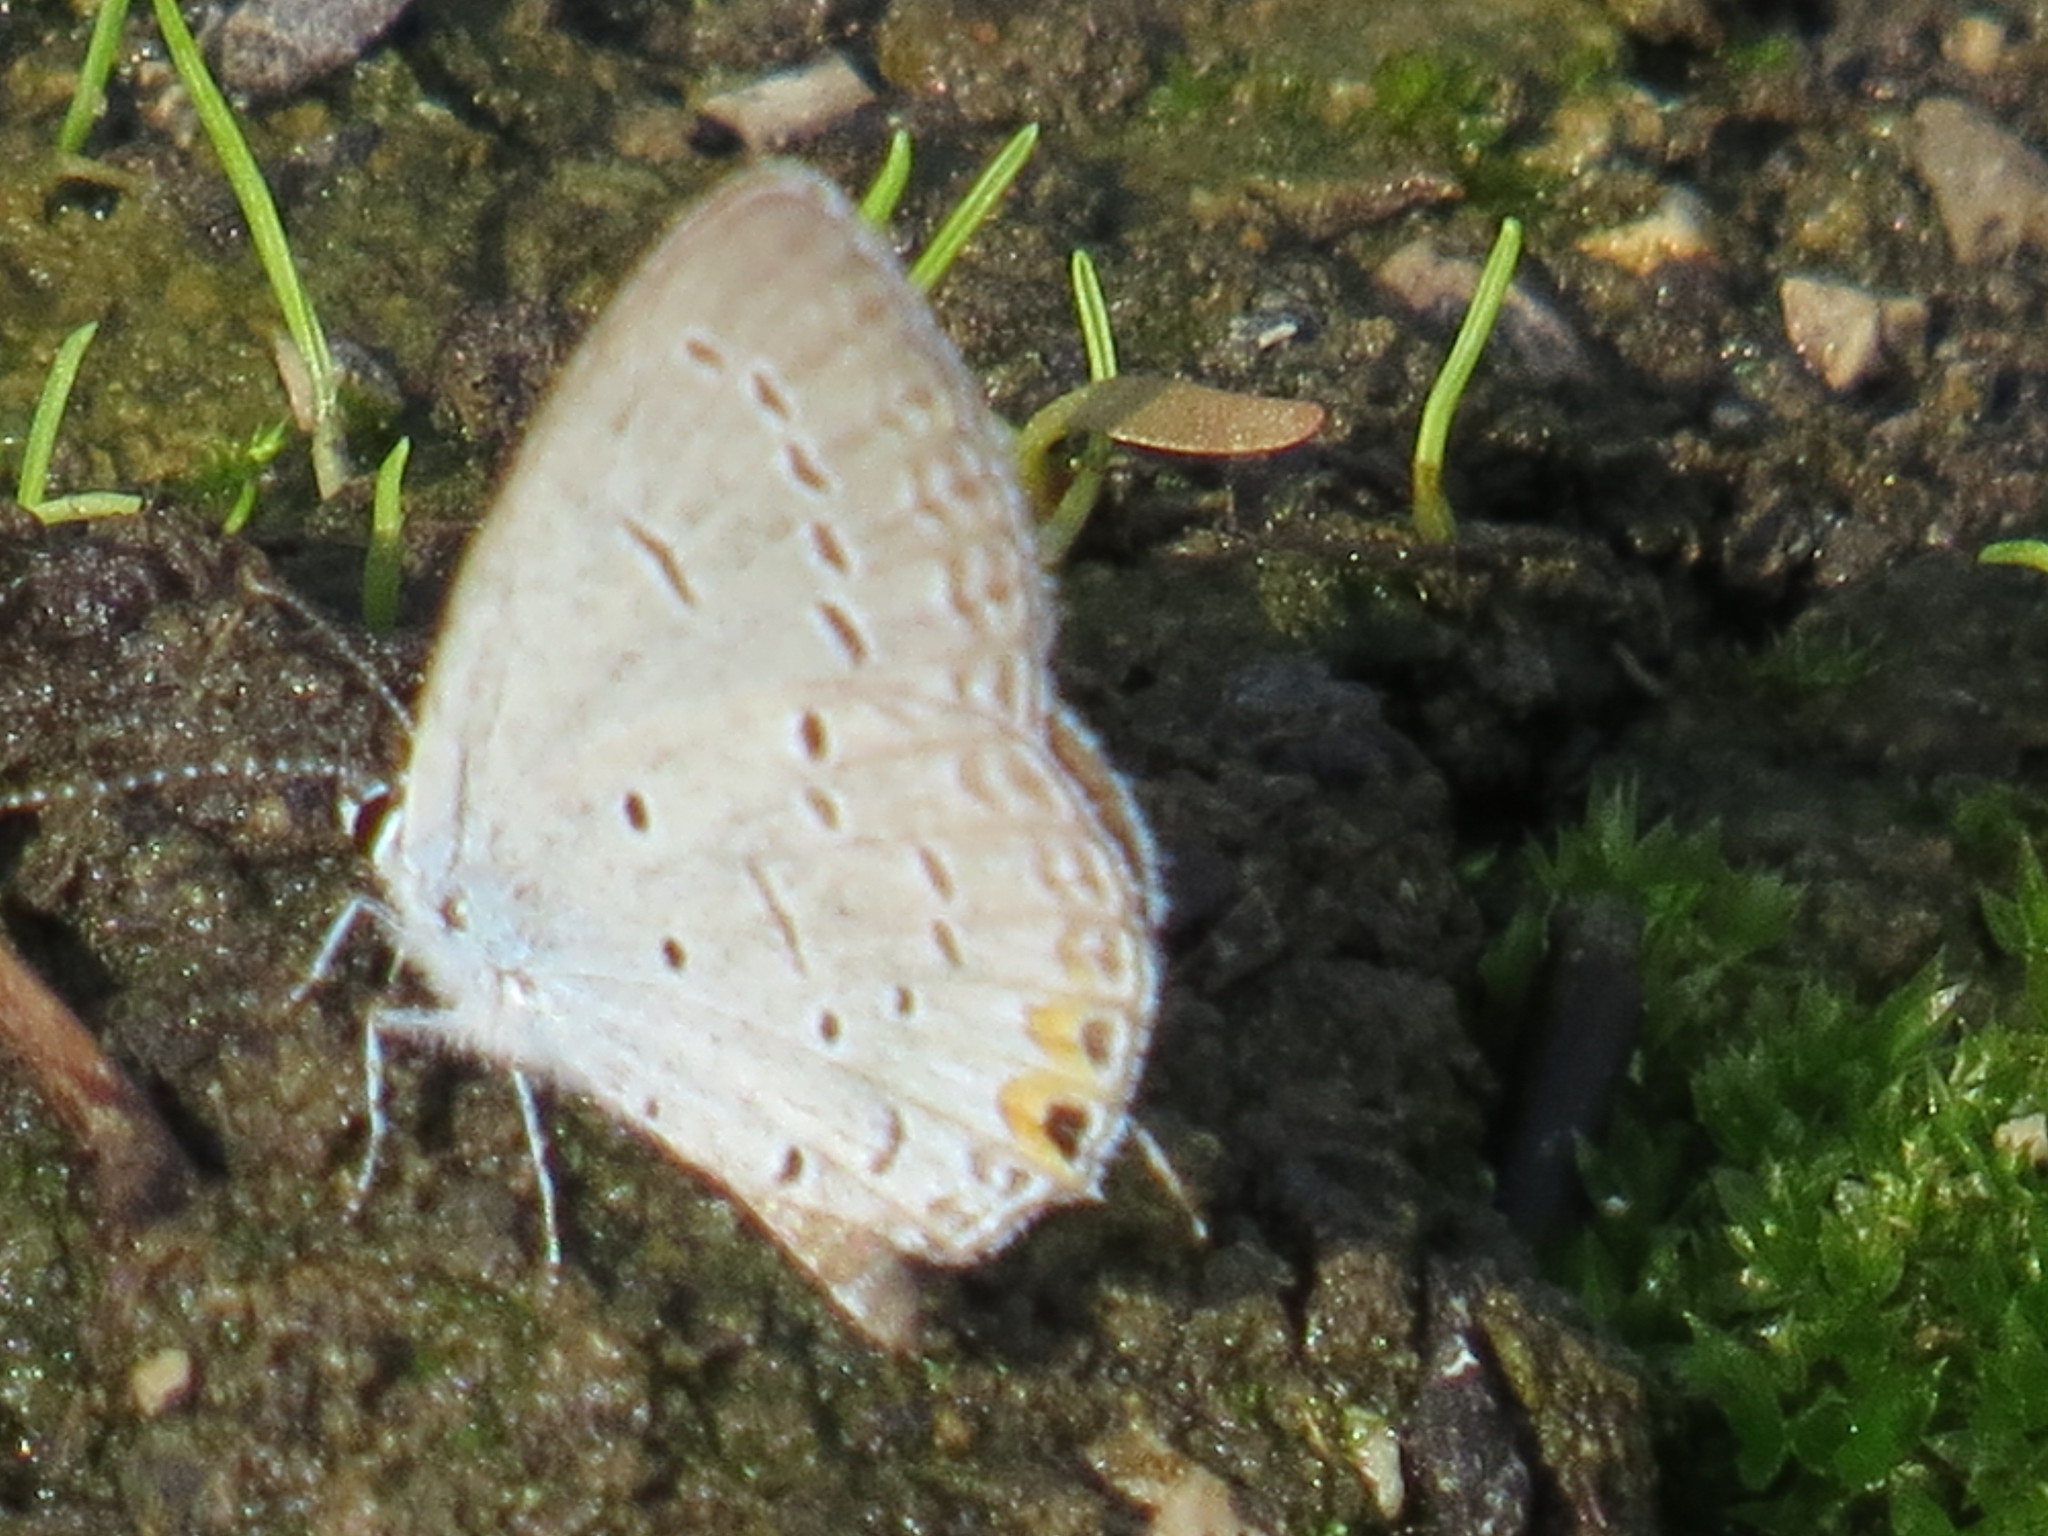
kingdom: Animalia
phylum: Arthropoda
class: Insecta
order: Lepidoptera
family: Lycaenidae
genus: Elkalyce
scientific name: Elkalyce comyntas
